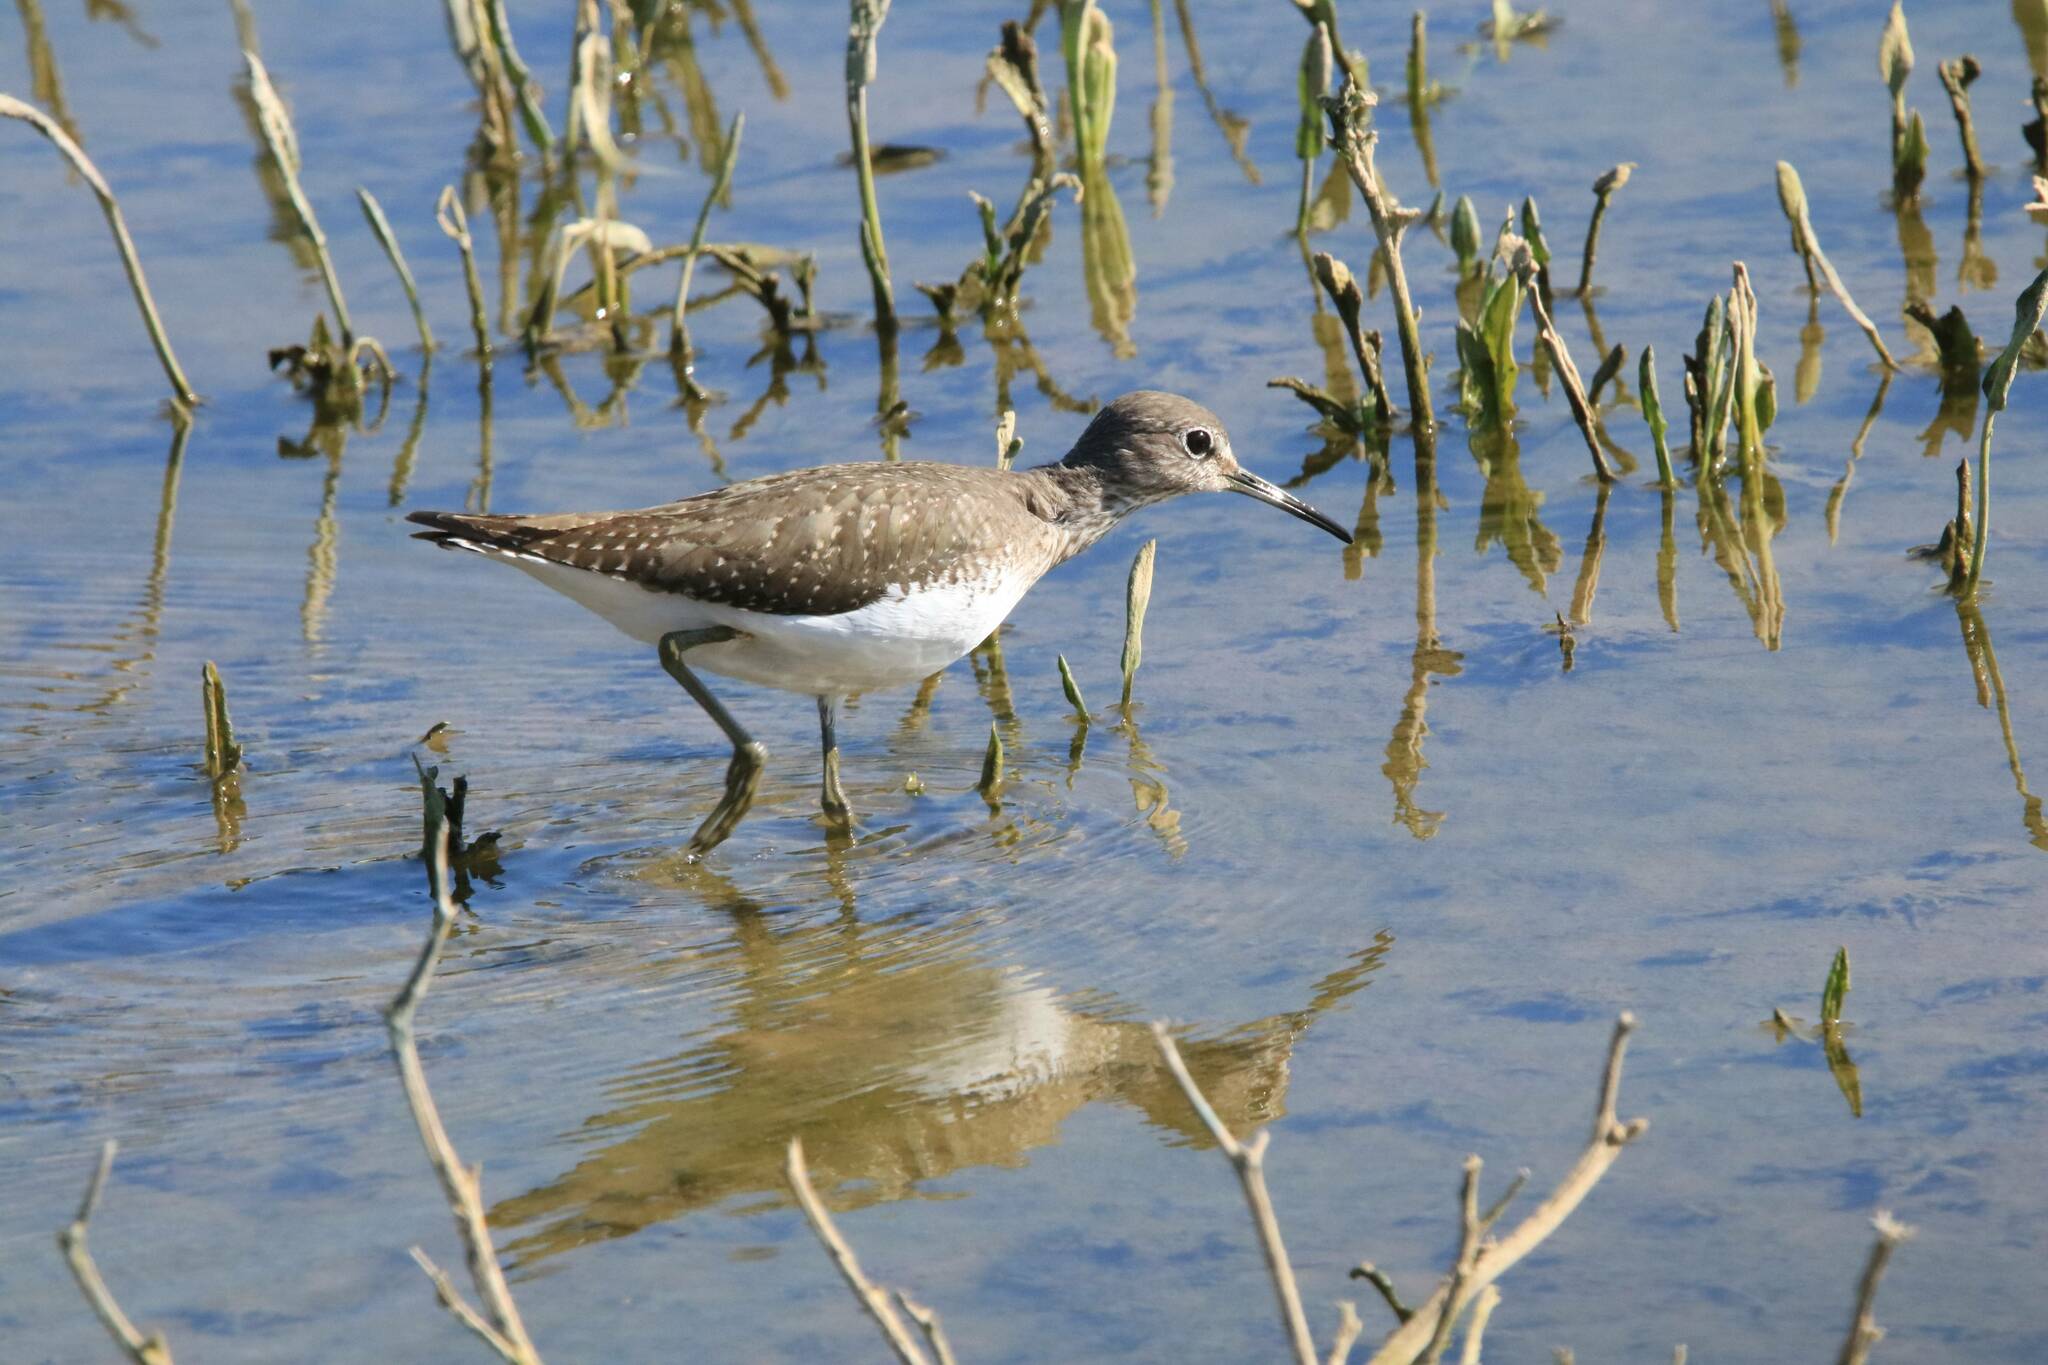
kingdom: Animalia
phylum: Chordata
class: Aves
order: Charadriiformes
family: Scolopacidae
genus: Tringa
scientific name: Tringa ochropus
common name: Green sandpiper
